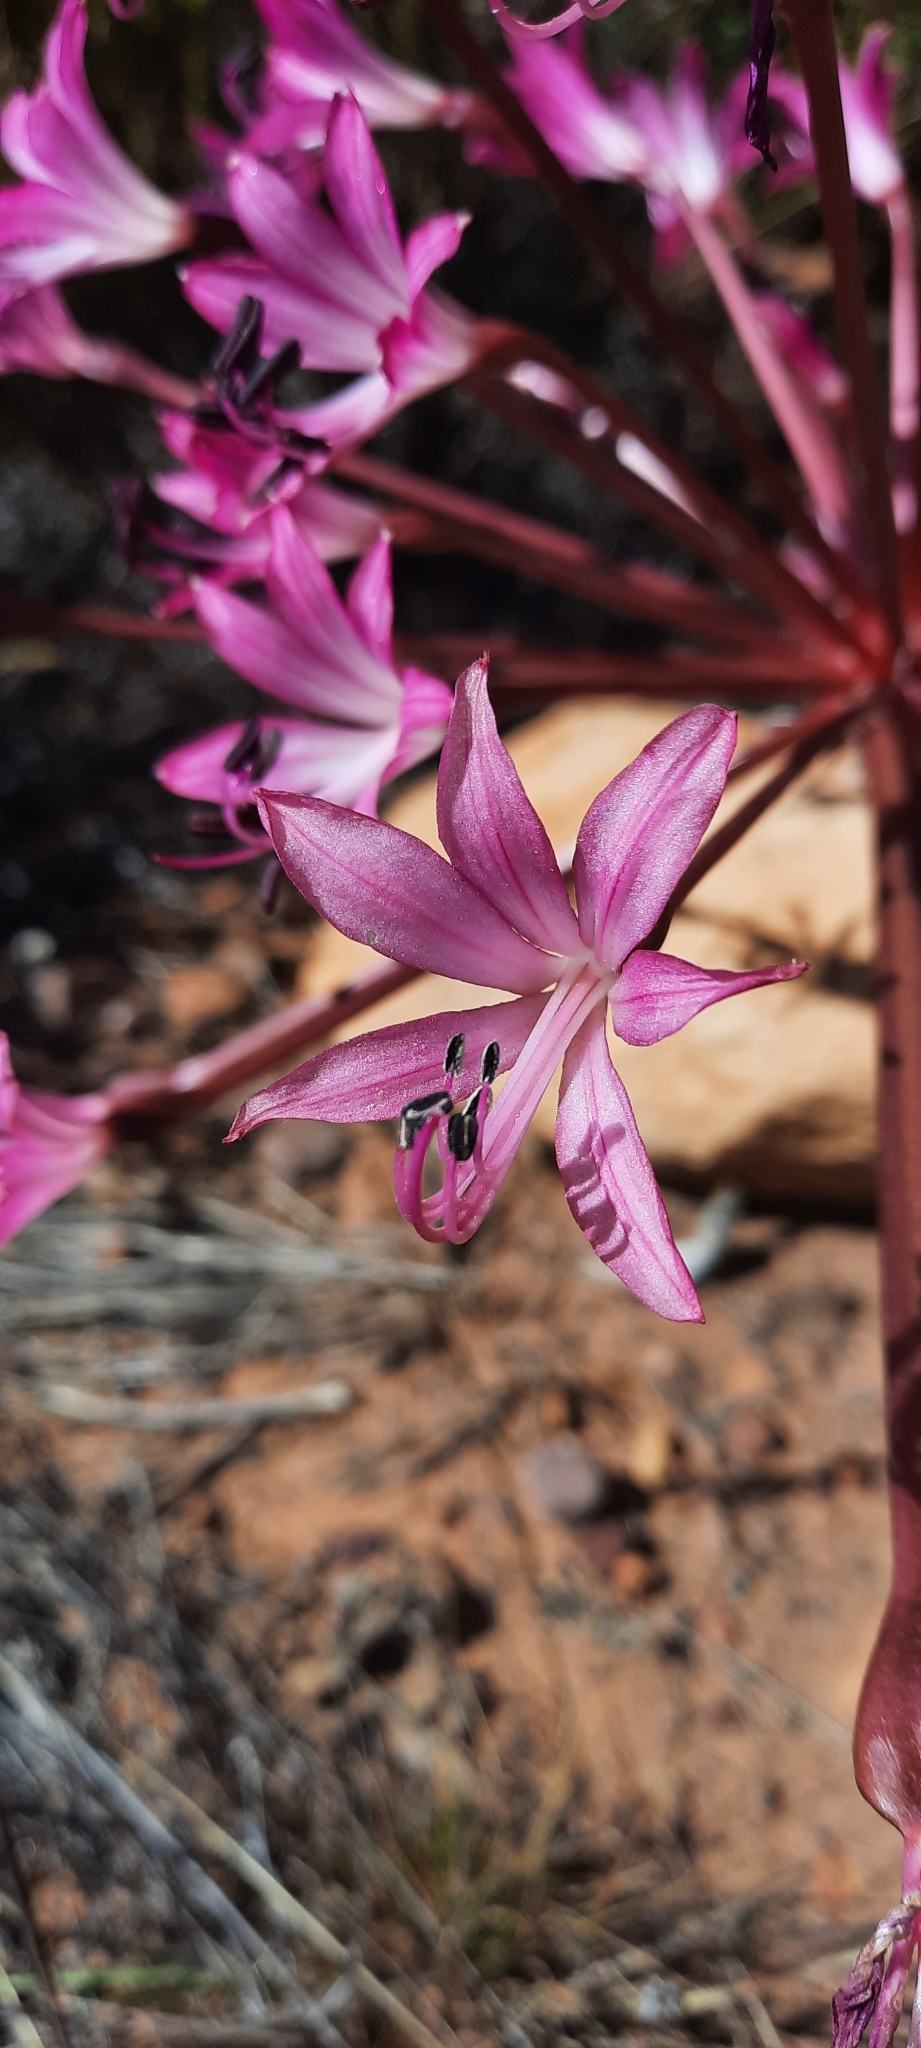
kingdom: Plantae
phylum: Tracheophyta
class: Liliopsida
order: Asparagales
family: Amaryllidaceae
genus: Brunsvigia
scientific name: Brunsvigia nervosa
